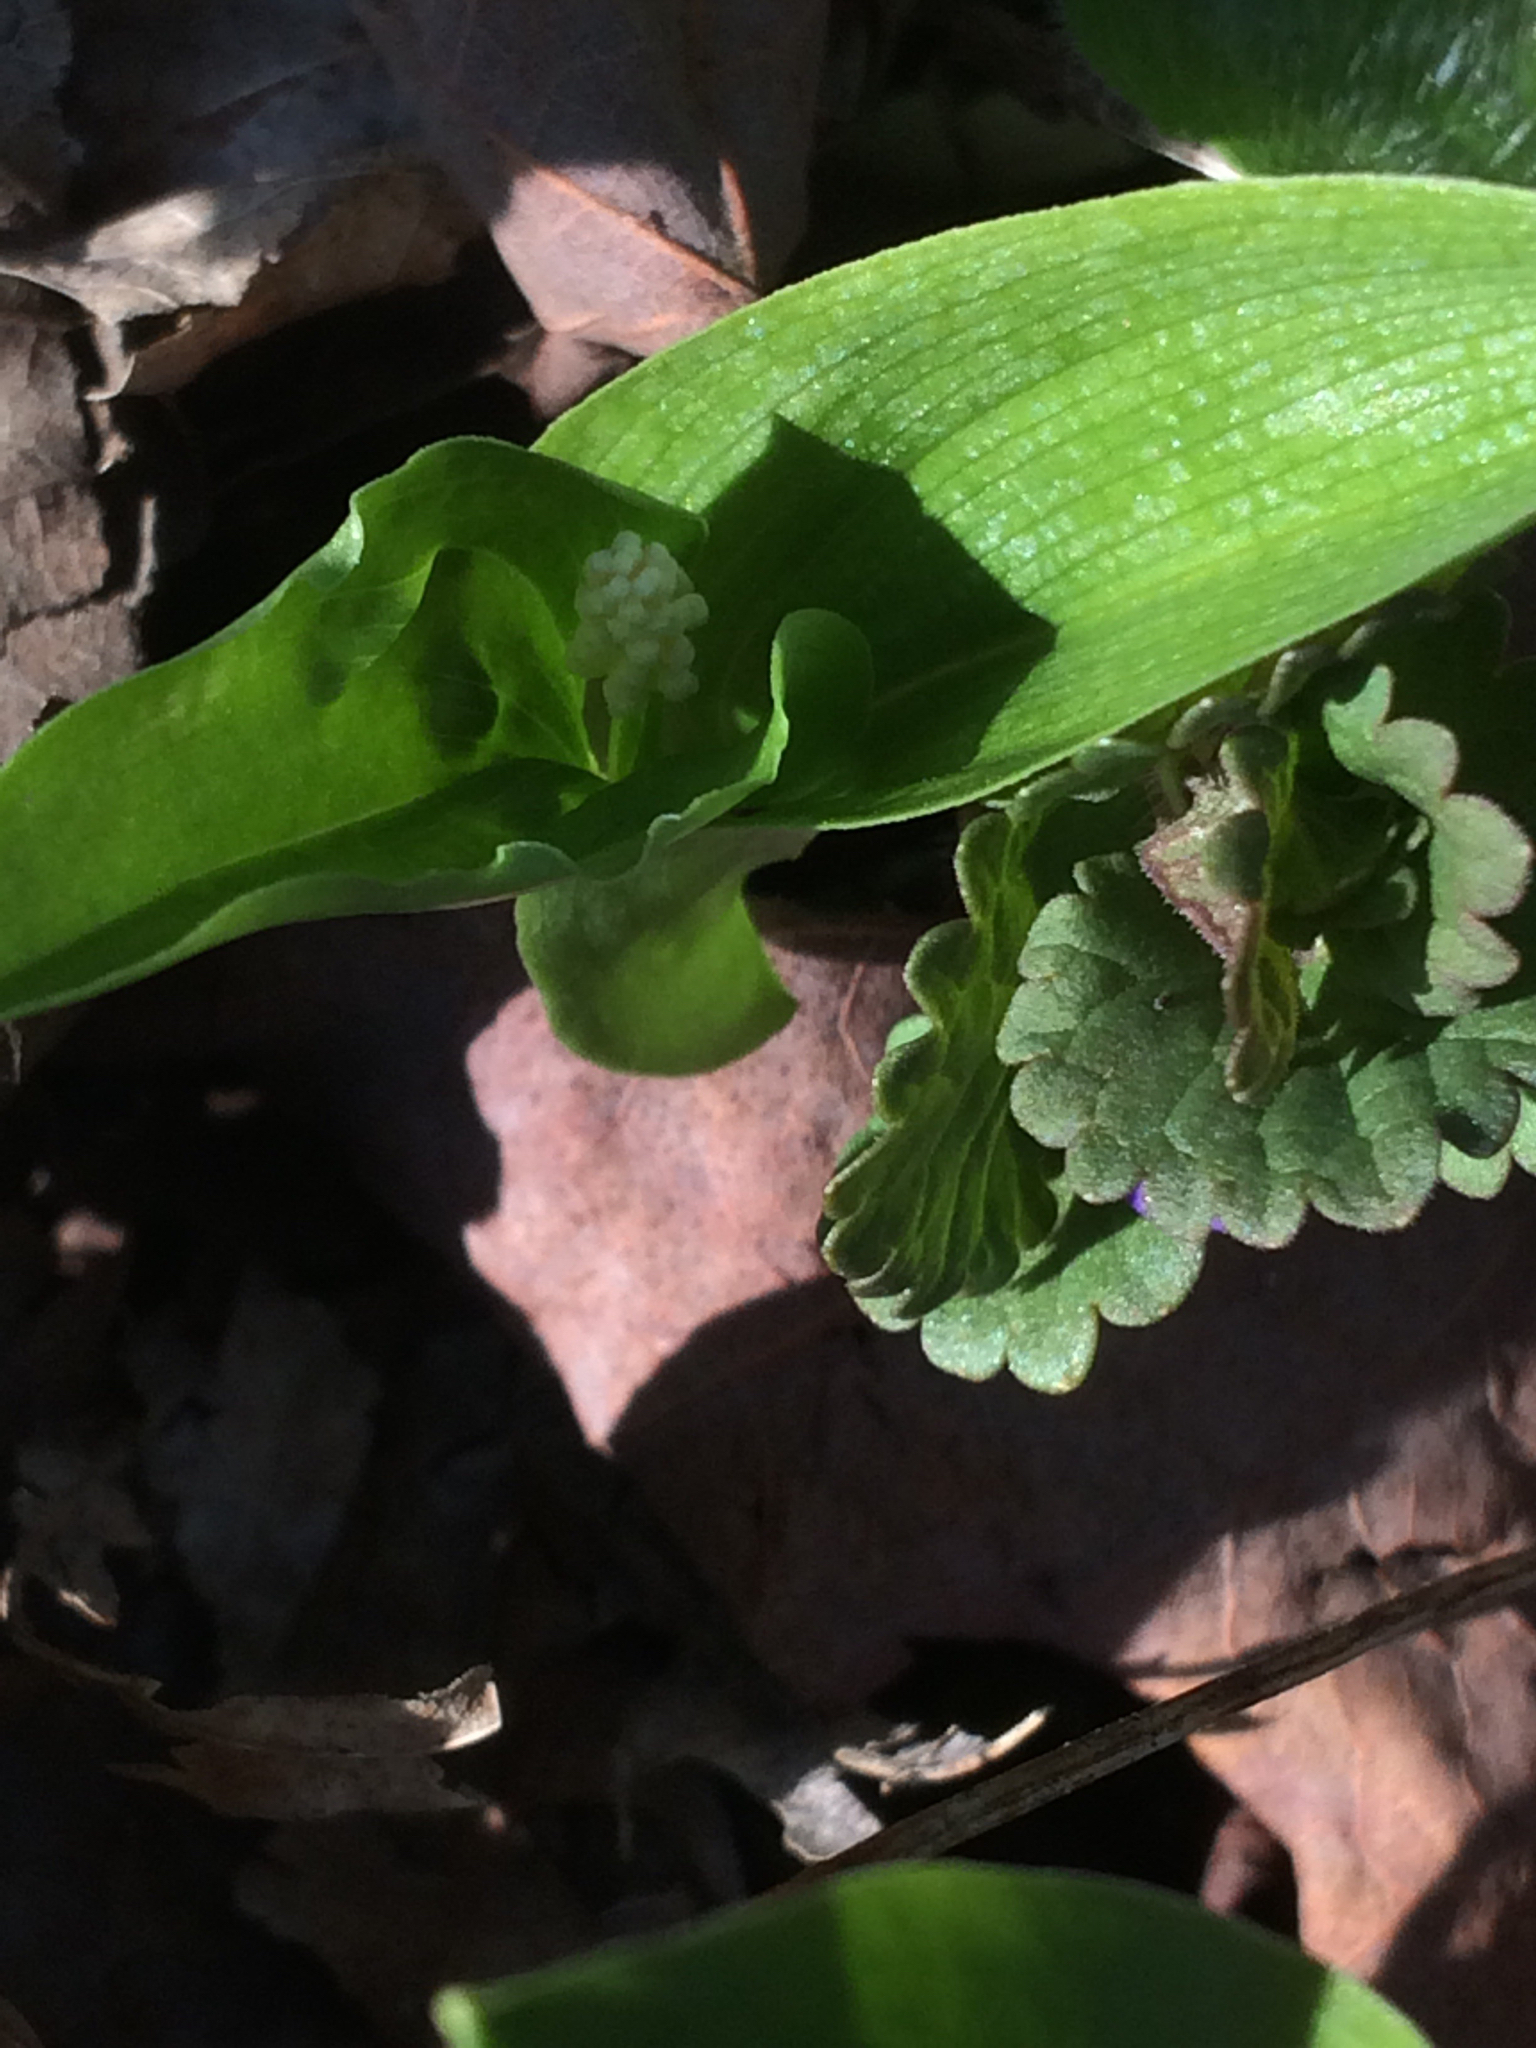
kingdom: Plantae
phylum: Tracheophyta
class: Liliopsida
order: Asparagales
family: Asparagaceae
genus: Maianthemum
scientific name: Maianthemum canadense
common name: False lily-of-the-valley
